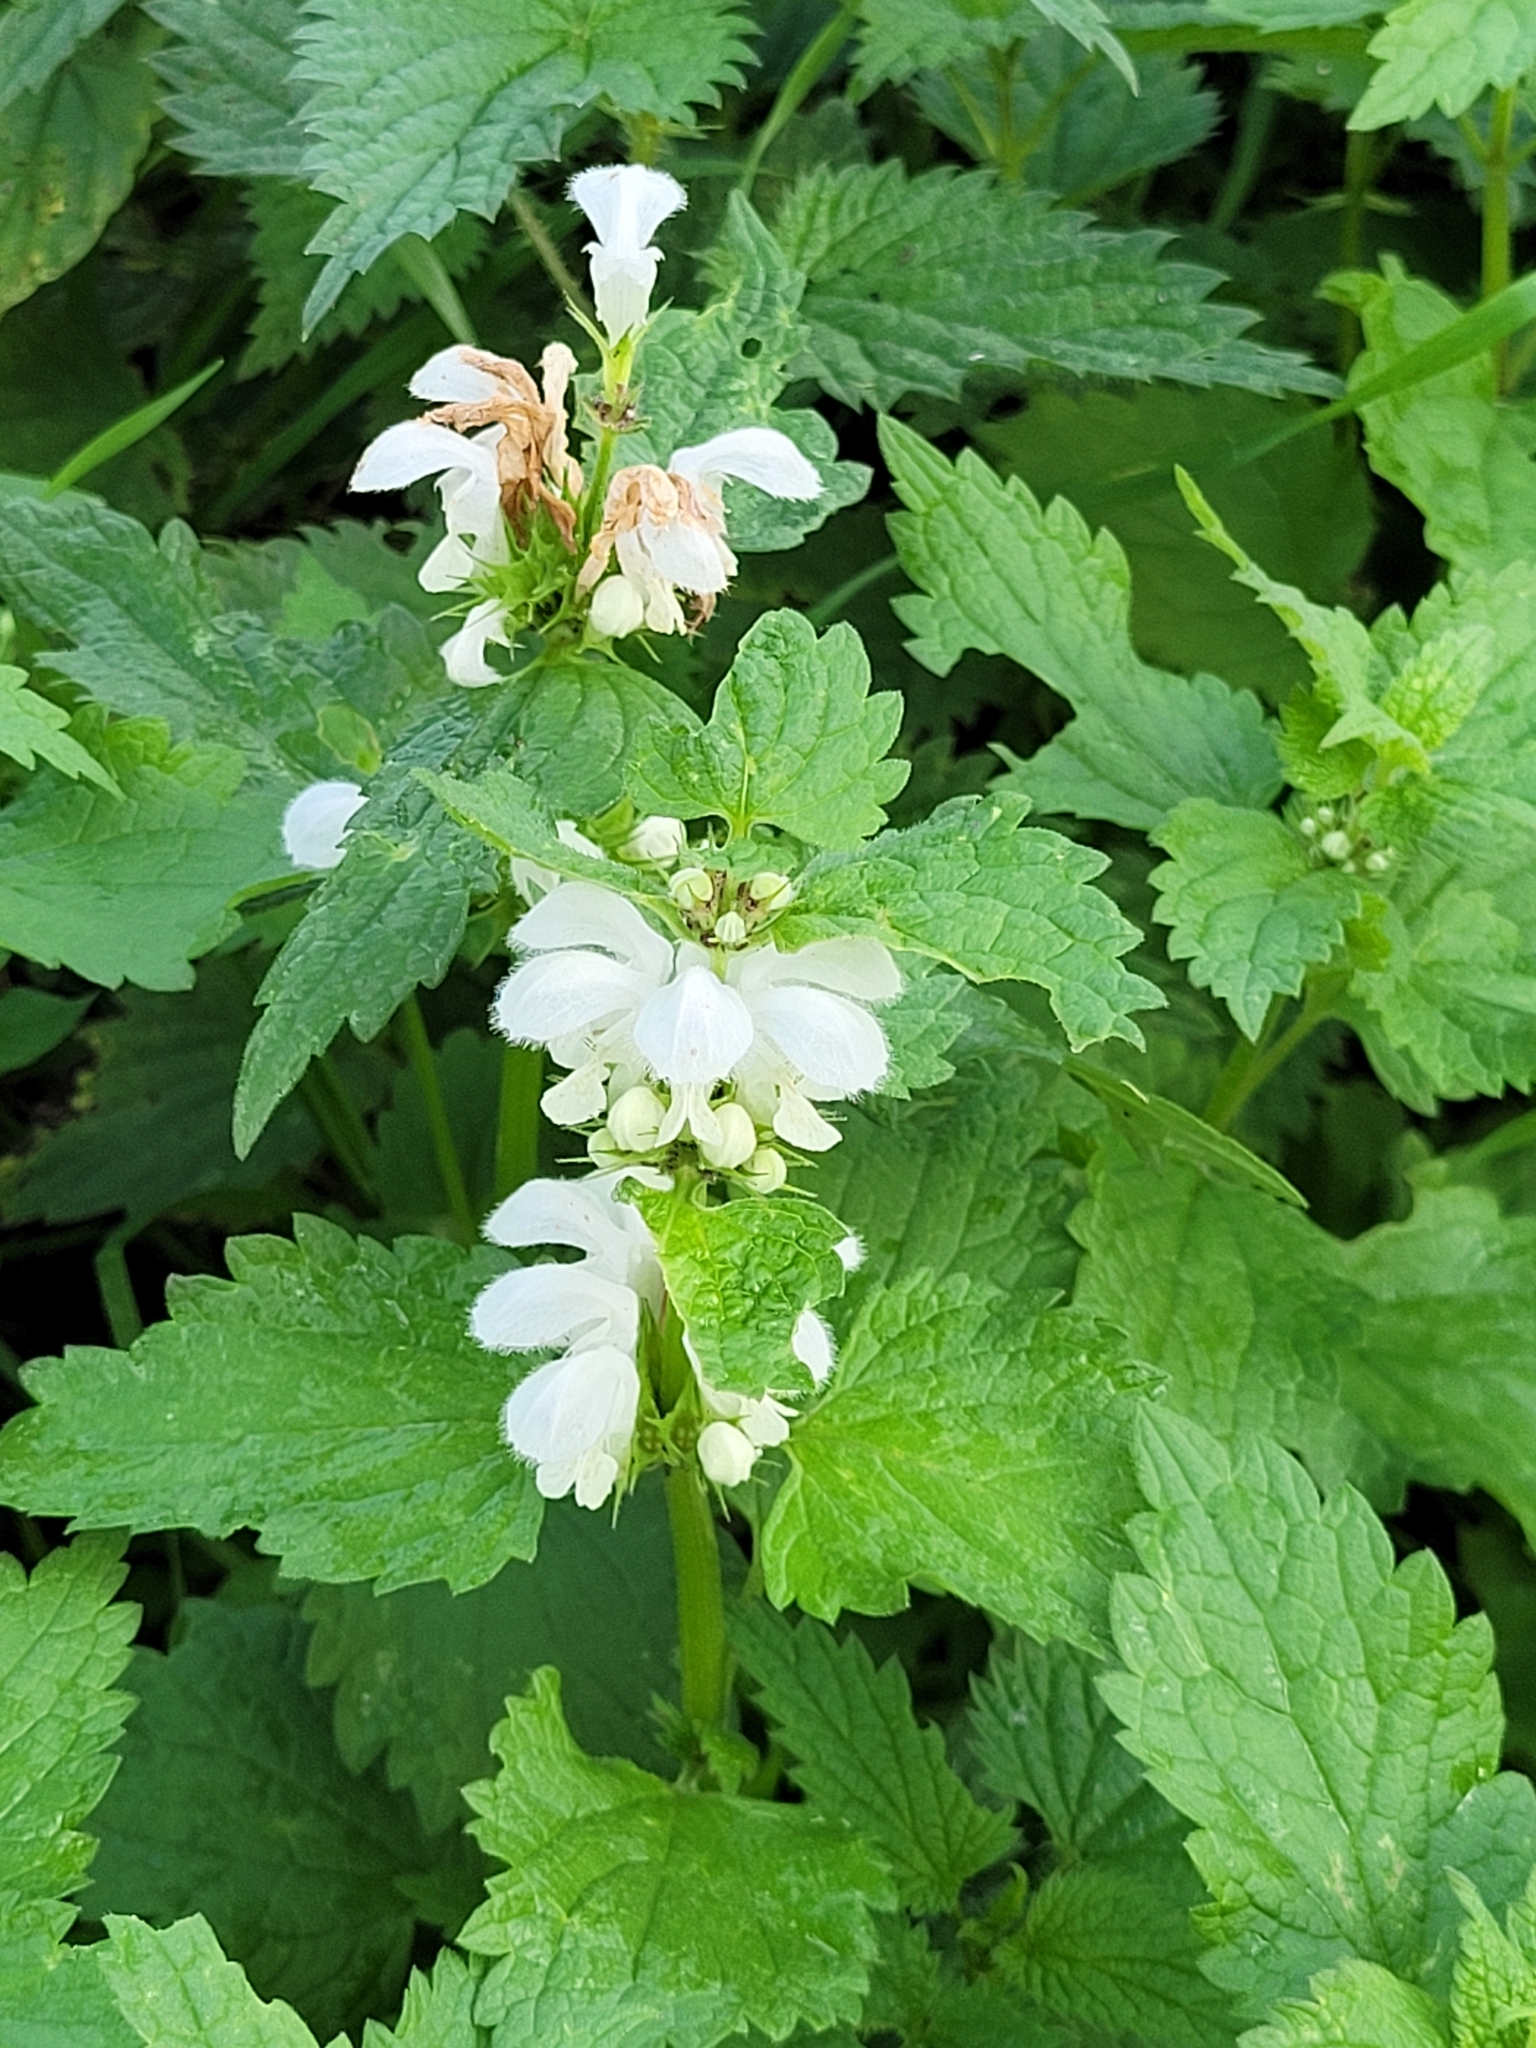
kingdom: Plantae
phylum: Tracheophyta
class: Magnoliopsida
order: Lamiales
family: Lamiaceae
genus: Lamium
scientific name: Lamium album
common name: White dead-nettle
